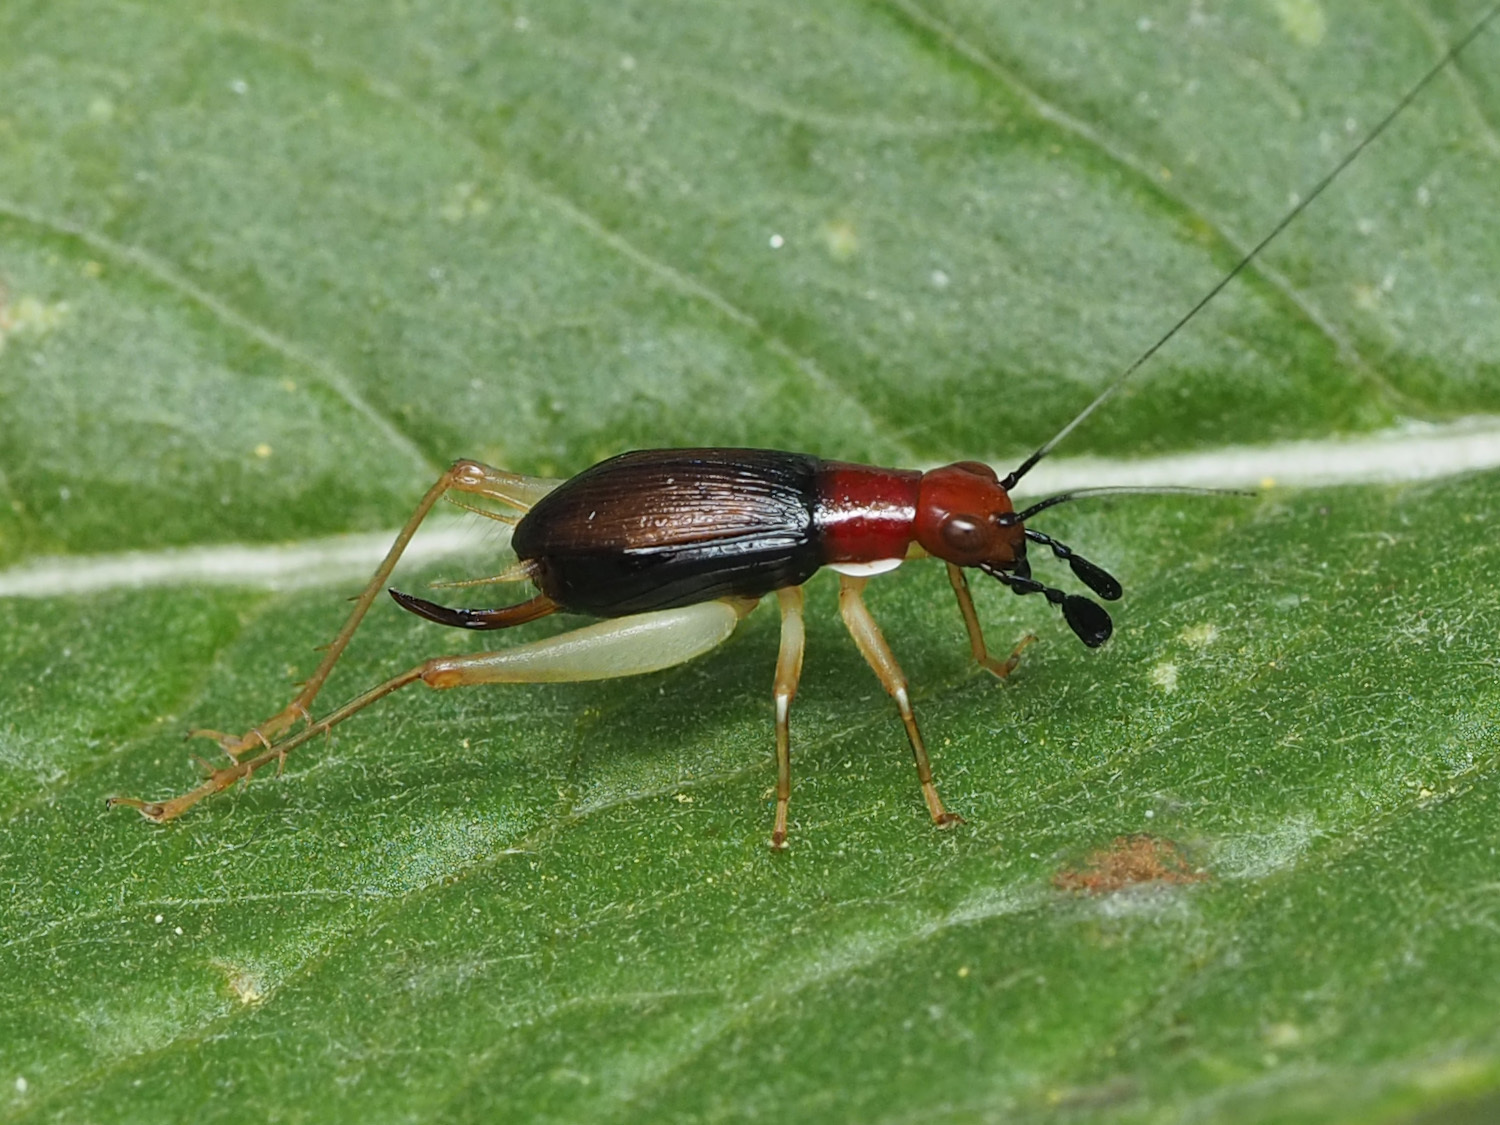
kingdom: Animalia
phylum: Arthropoda
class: Insecta
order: Orthoptera
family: Trigonidiidae
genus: Phyllopalpus
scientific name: Phyllopalpus pulchellus
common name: Handsome trig
